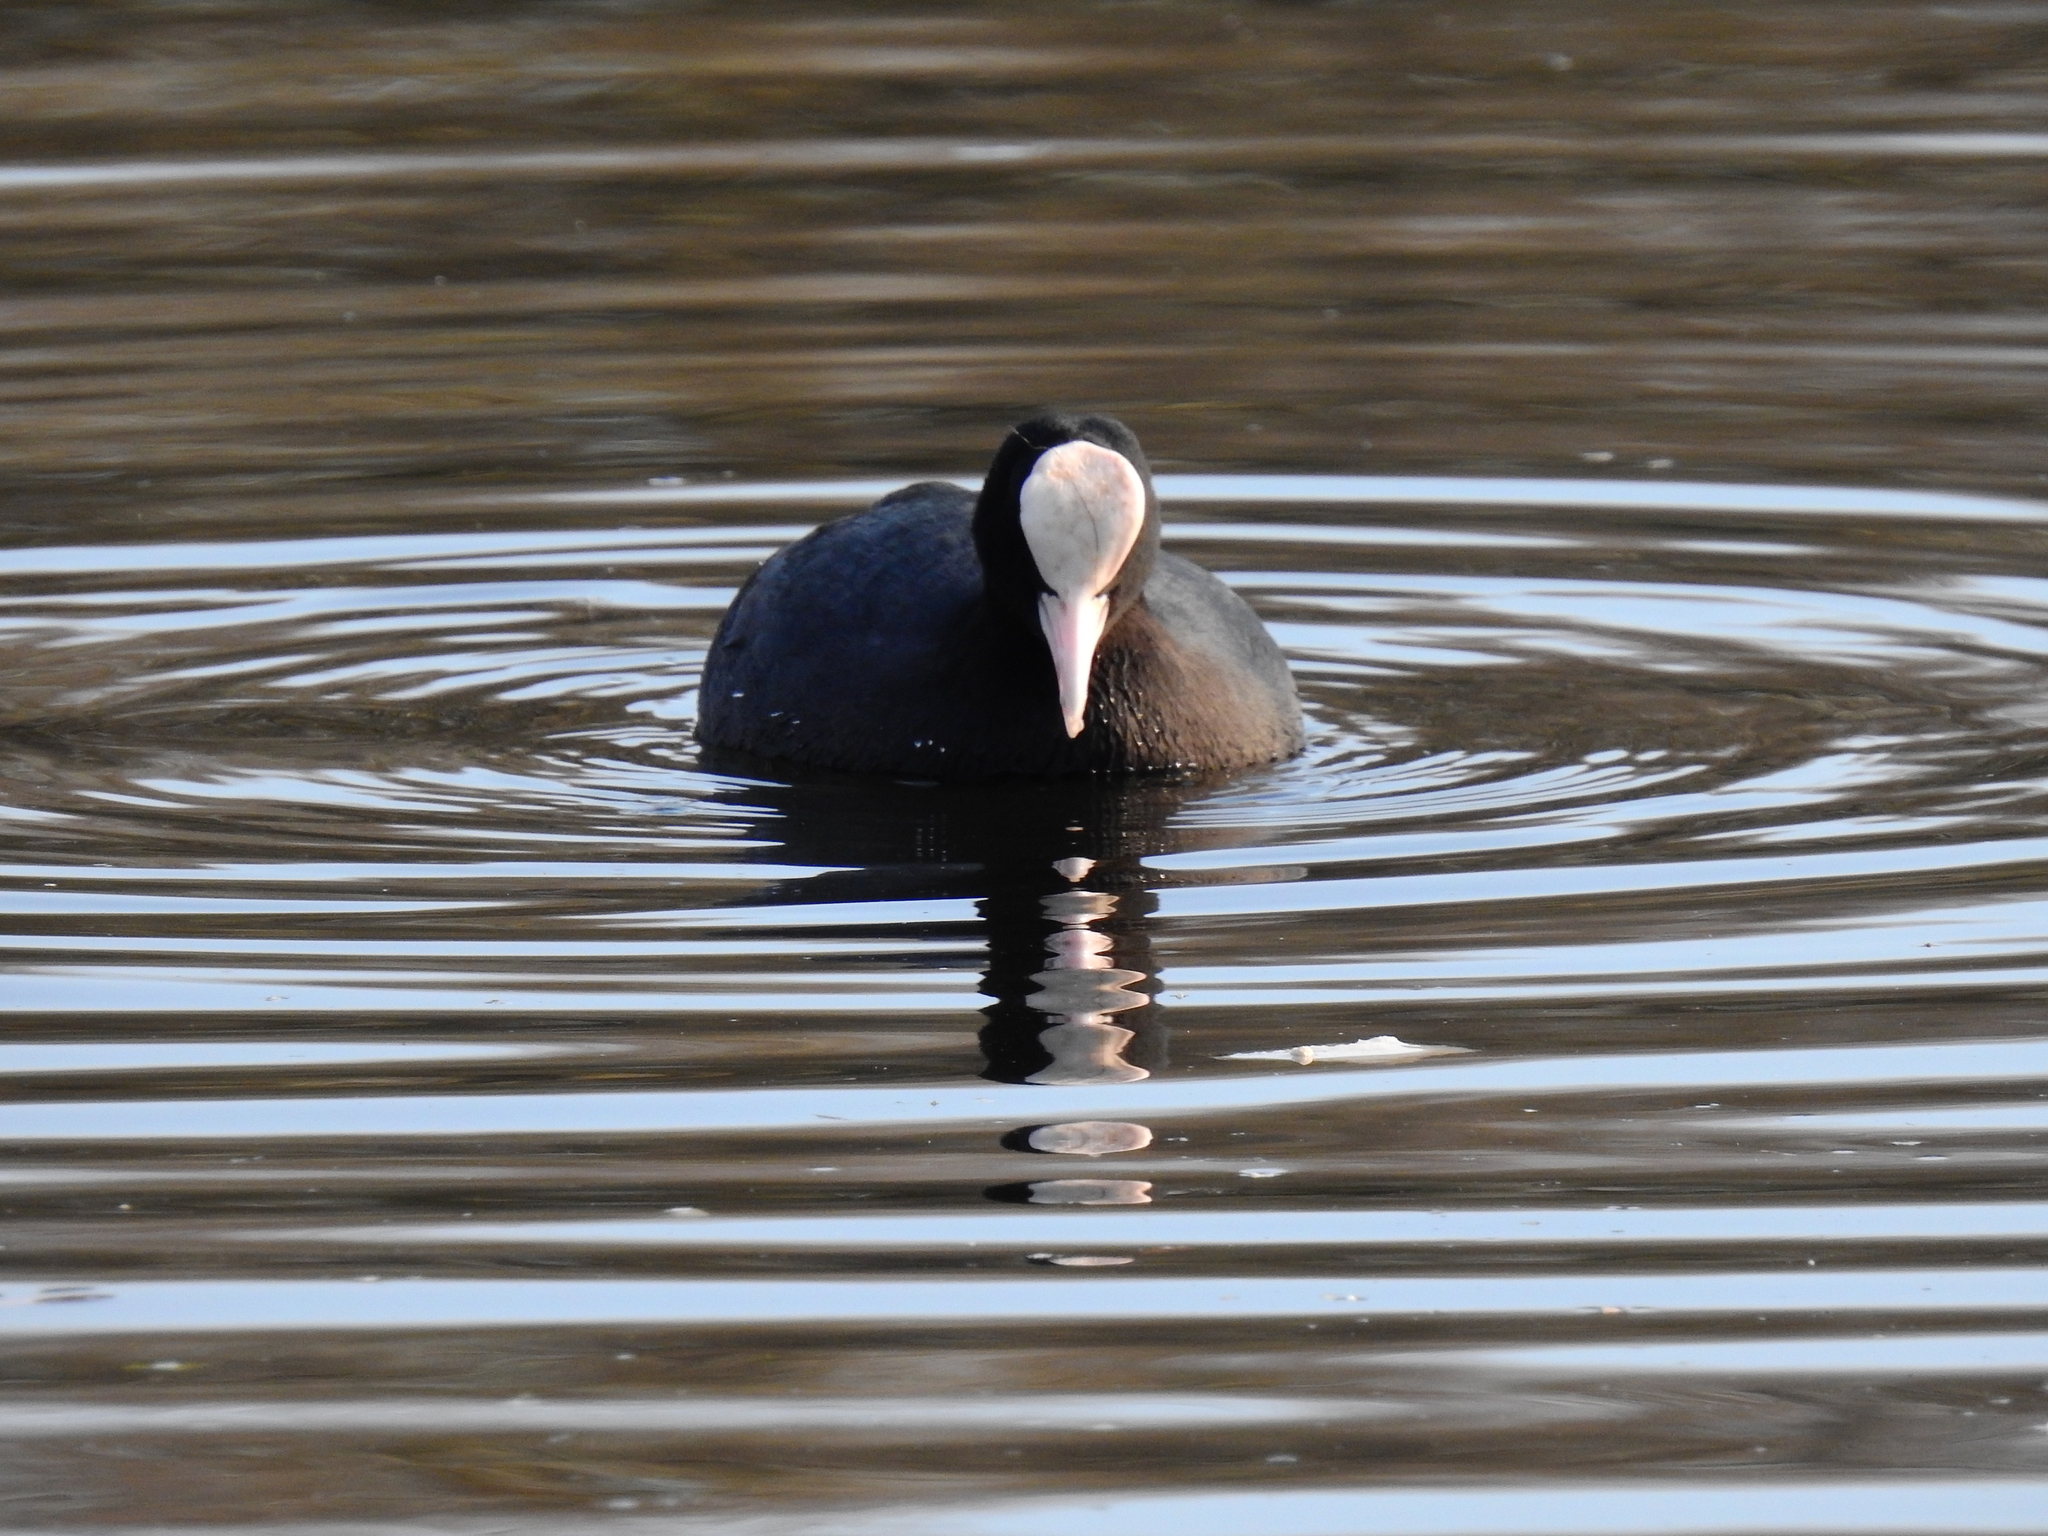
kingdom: Animalia
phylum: Chordata
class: Aves
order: Gruiformes
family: Rallidae
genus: Fulica
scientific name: Fulica atra
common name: Eurasian coot
